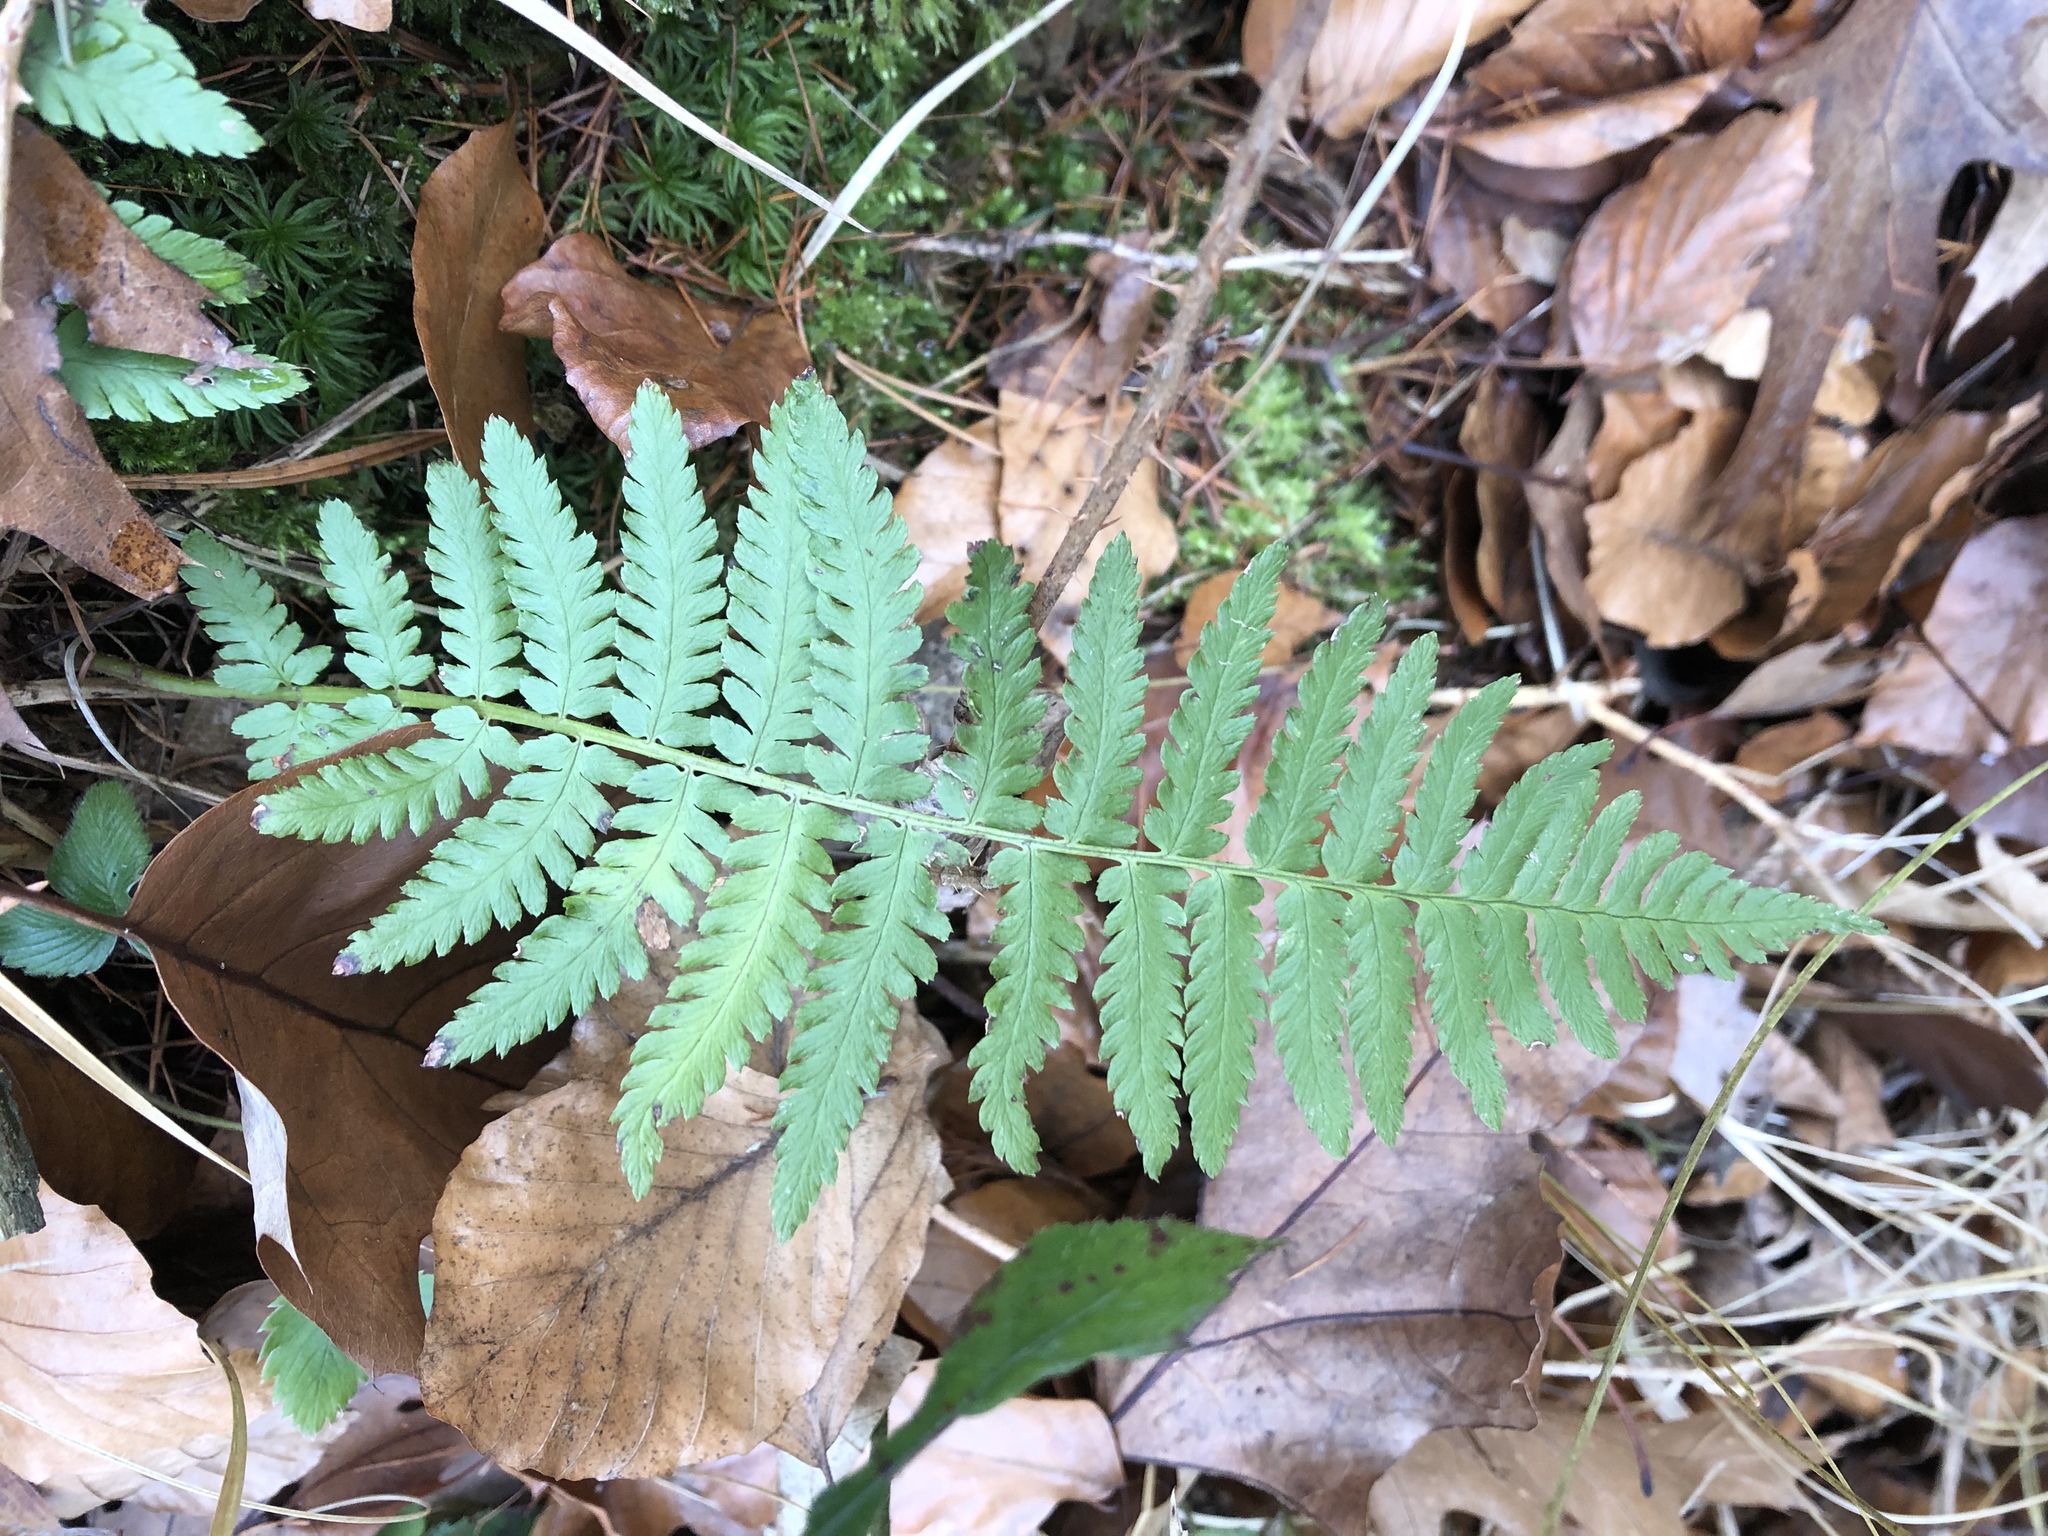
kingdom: Plantae
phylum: Tracheophyta
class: Polypodiopsida
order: Polypodiales
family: Dryopteridaceae
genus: Dryopteris
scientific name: Dryopteris filix-mas
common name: Male fern
